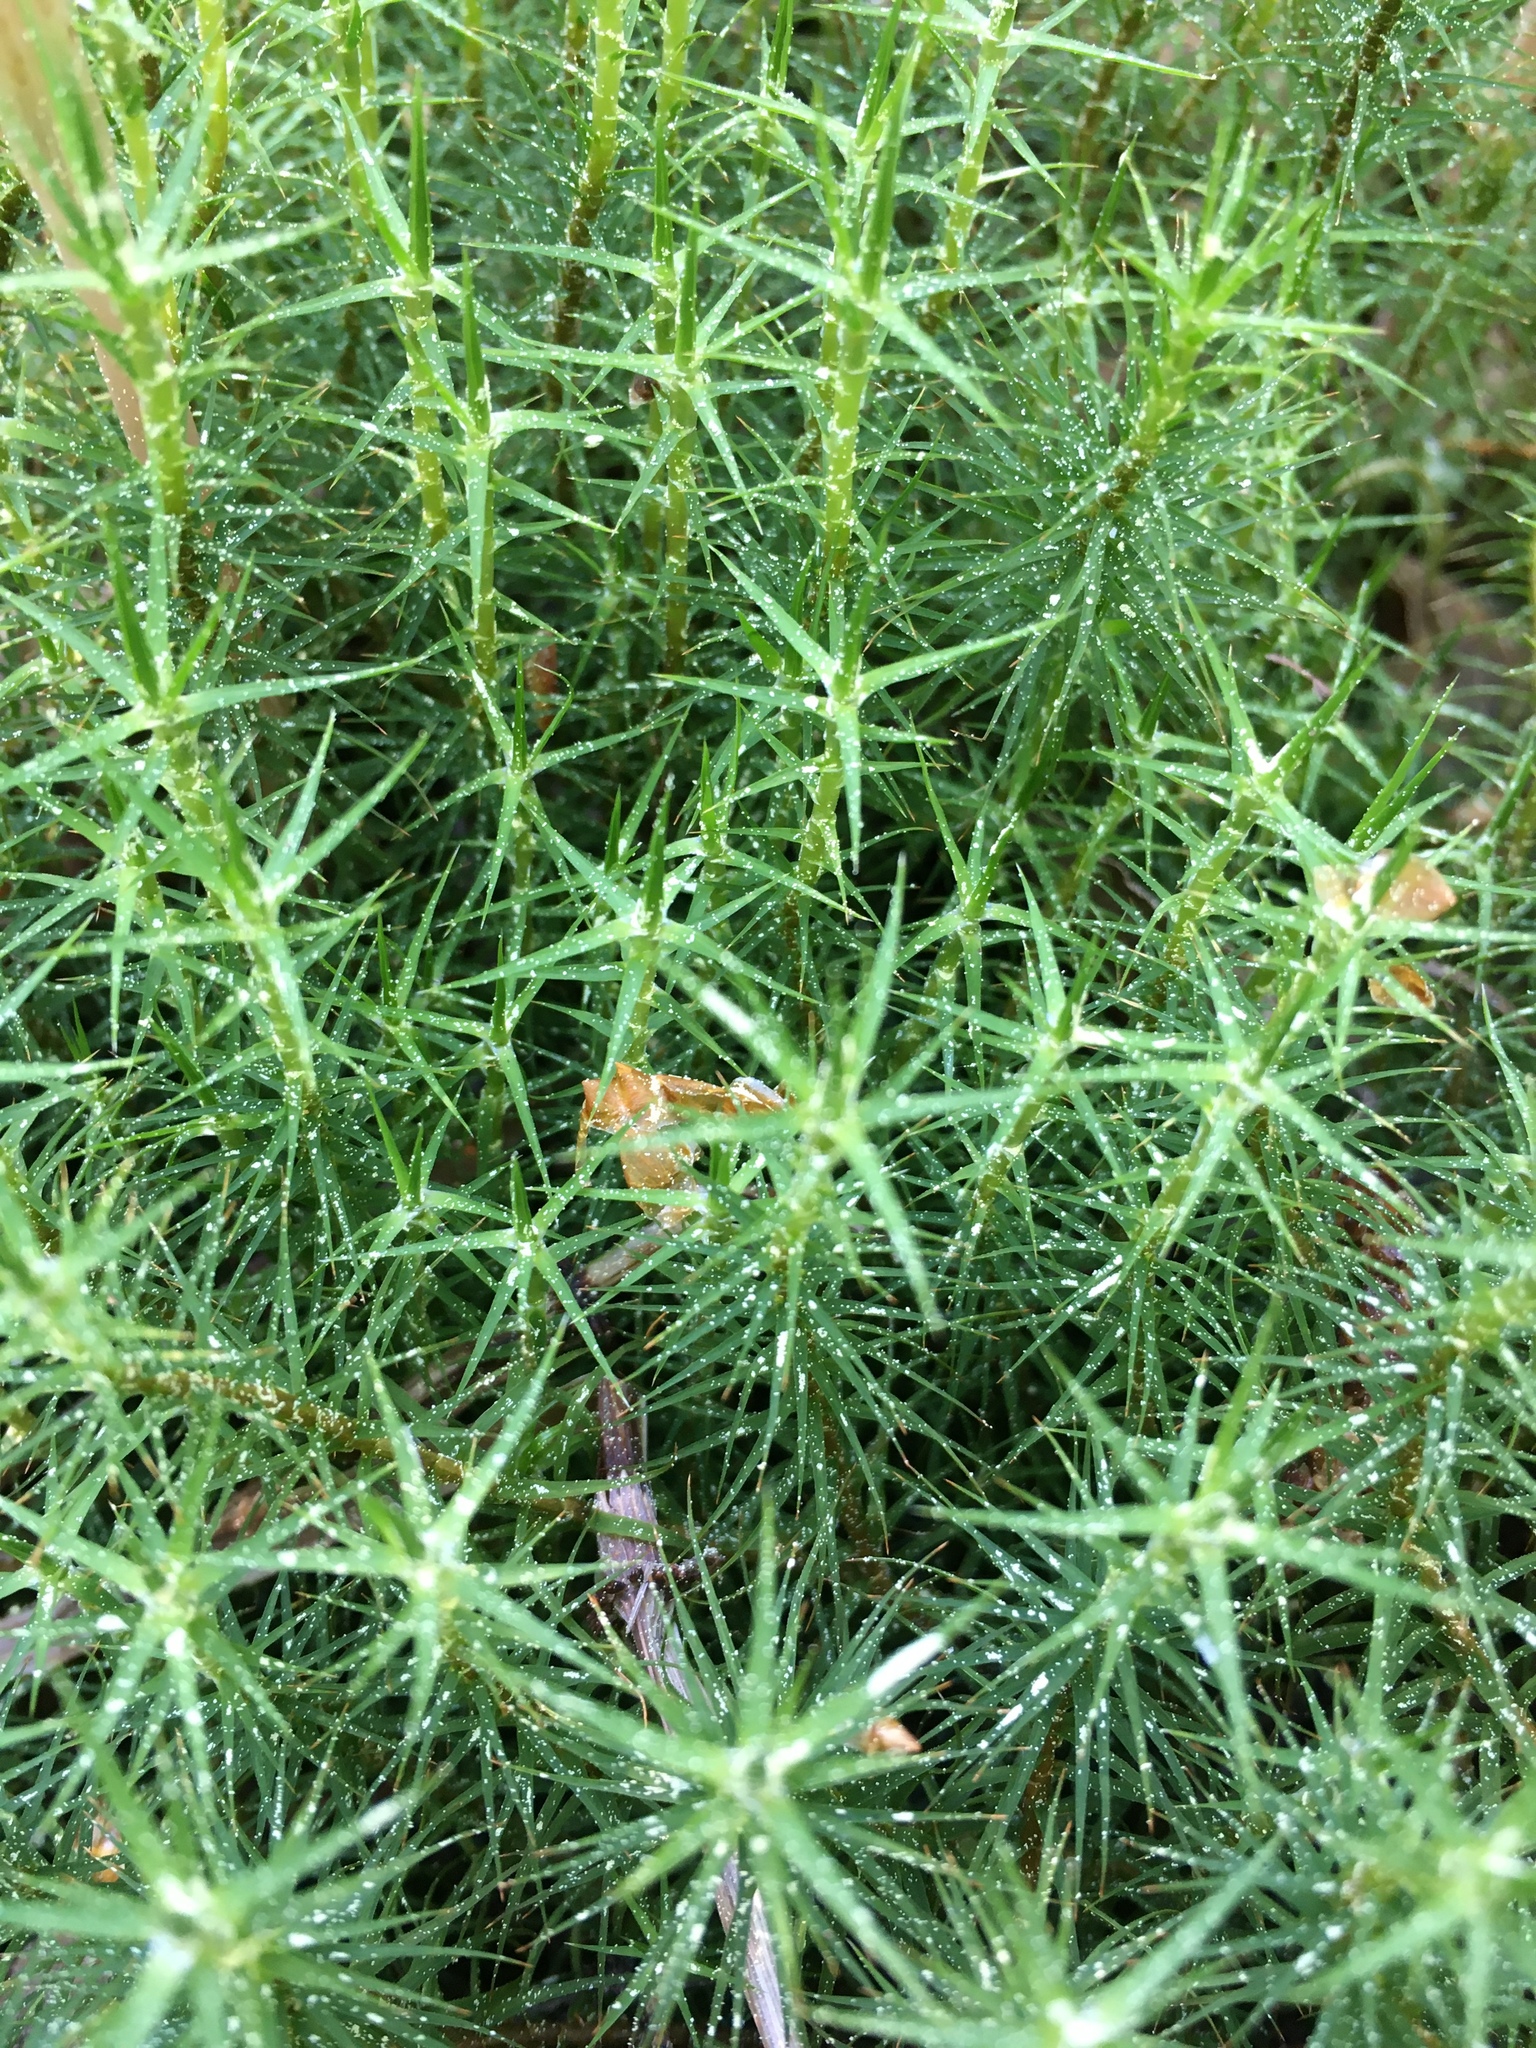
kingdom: Plantae
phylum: Bryophyta
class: Polytrichopsida
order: Polytrichales
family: Polytrichaceae
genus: Polytrichum
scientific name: Polytrichum commune
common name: Common haircap
